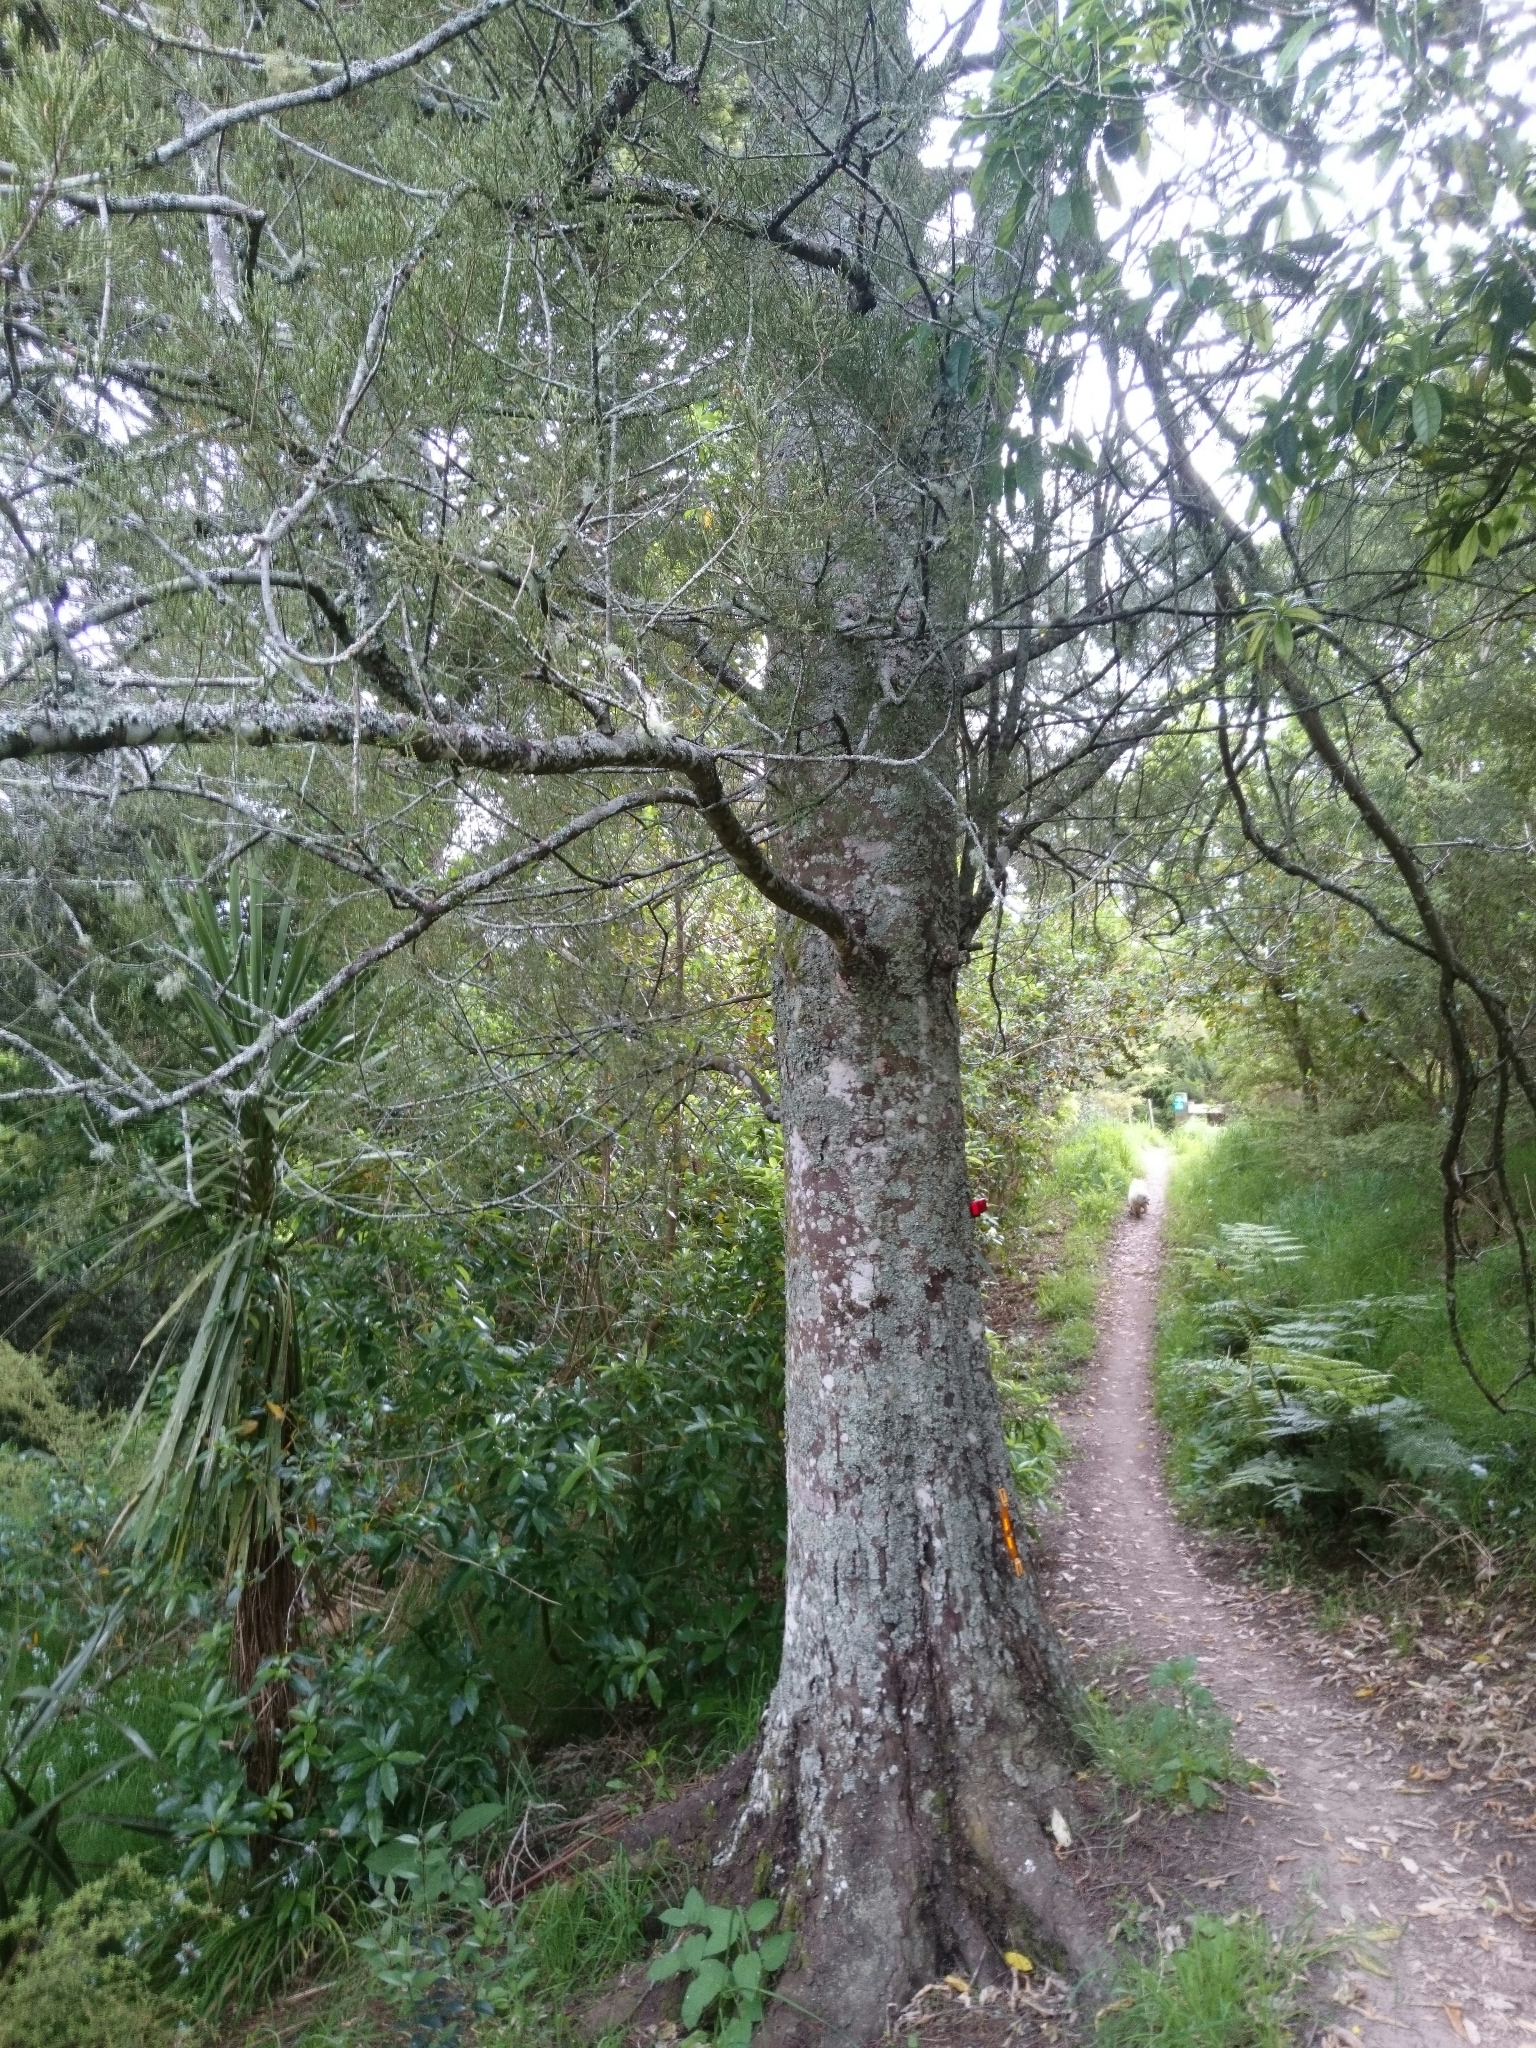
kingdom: Plantae
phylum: Tracheophyta
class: Pinopsida
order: Pinales
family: Podocarpaceae
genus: Dacrycarpus
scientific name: Dacrycarpus dacrydioides
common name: White pine
